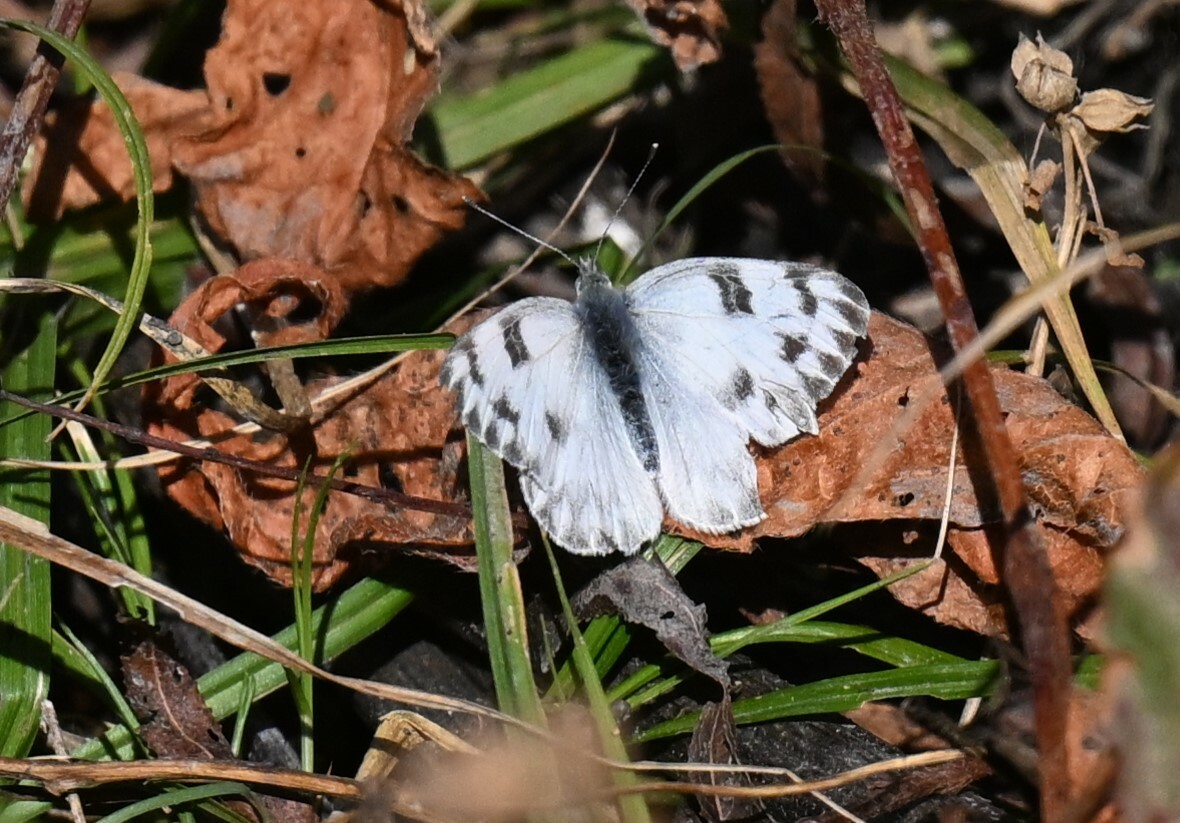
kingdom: Animalia
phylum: Arthropoda
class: Insecta
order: Lepidoptera
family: Pieridae
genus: Pontia
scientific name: Pontia protodice
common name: Checkered white
